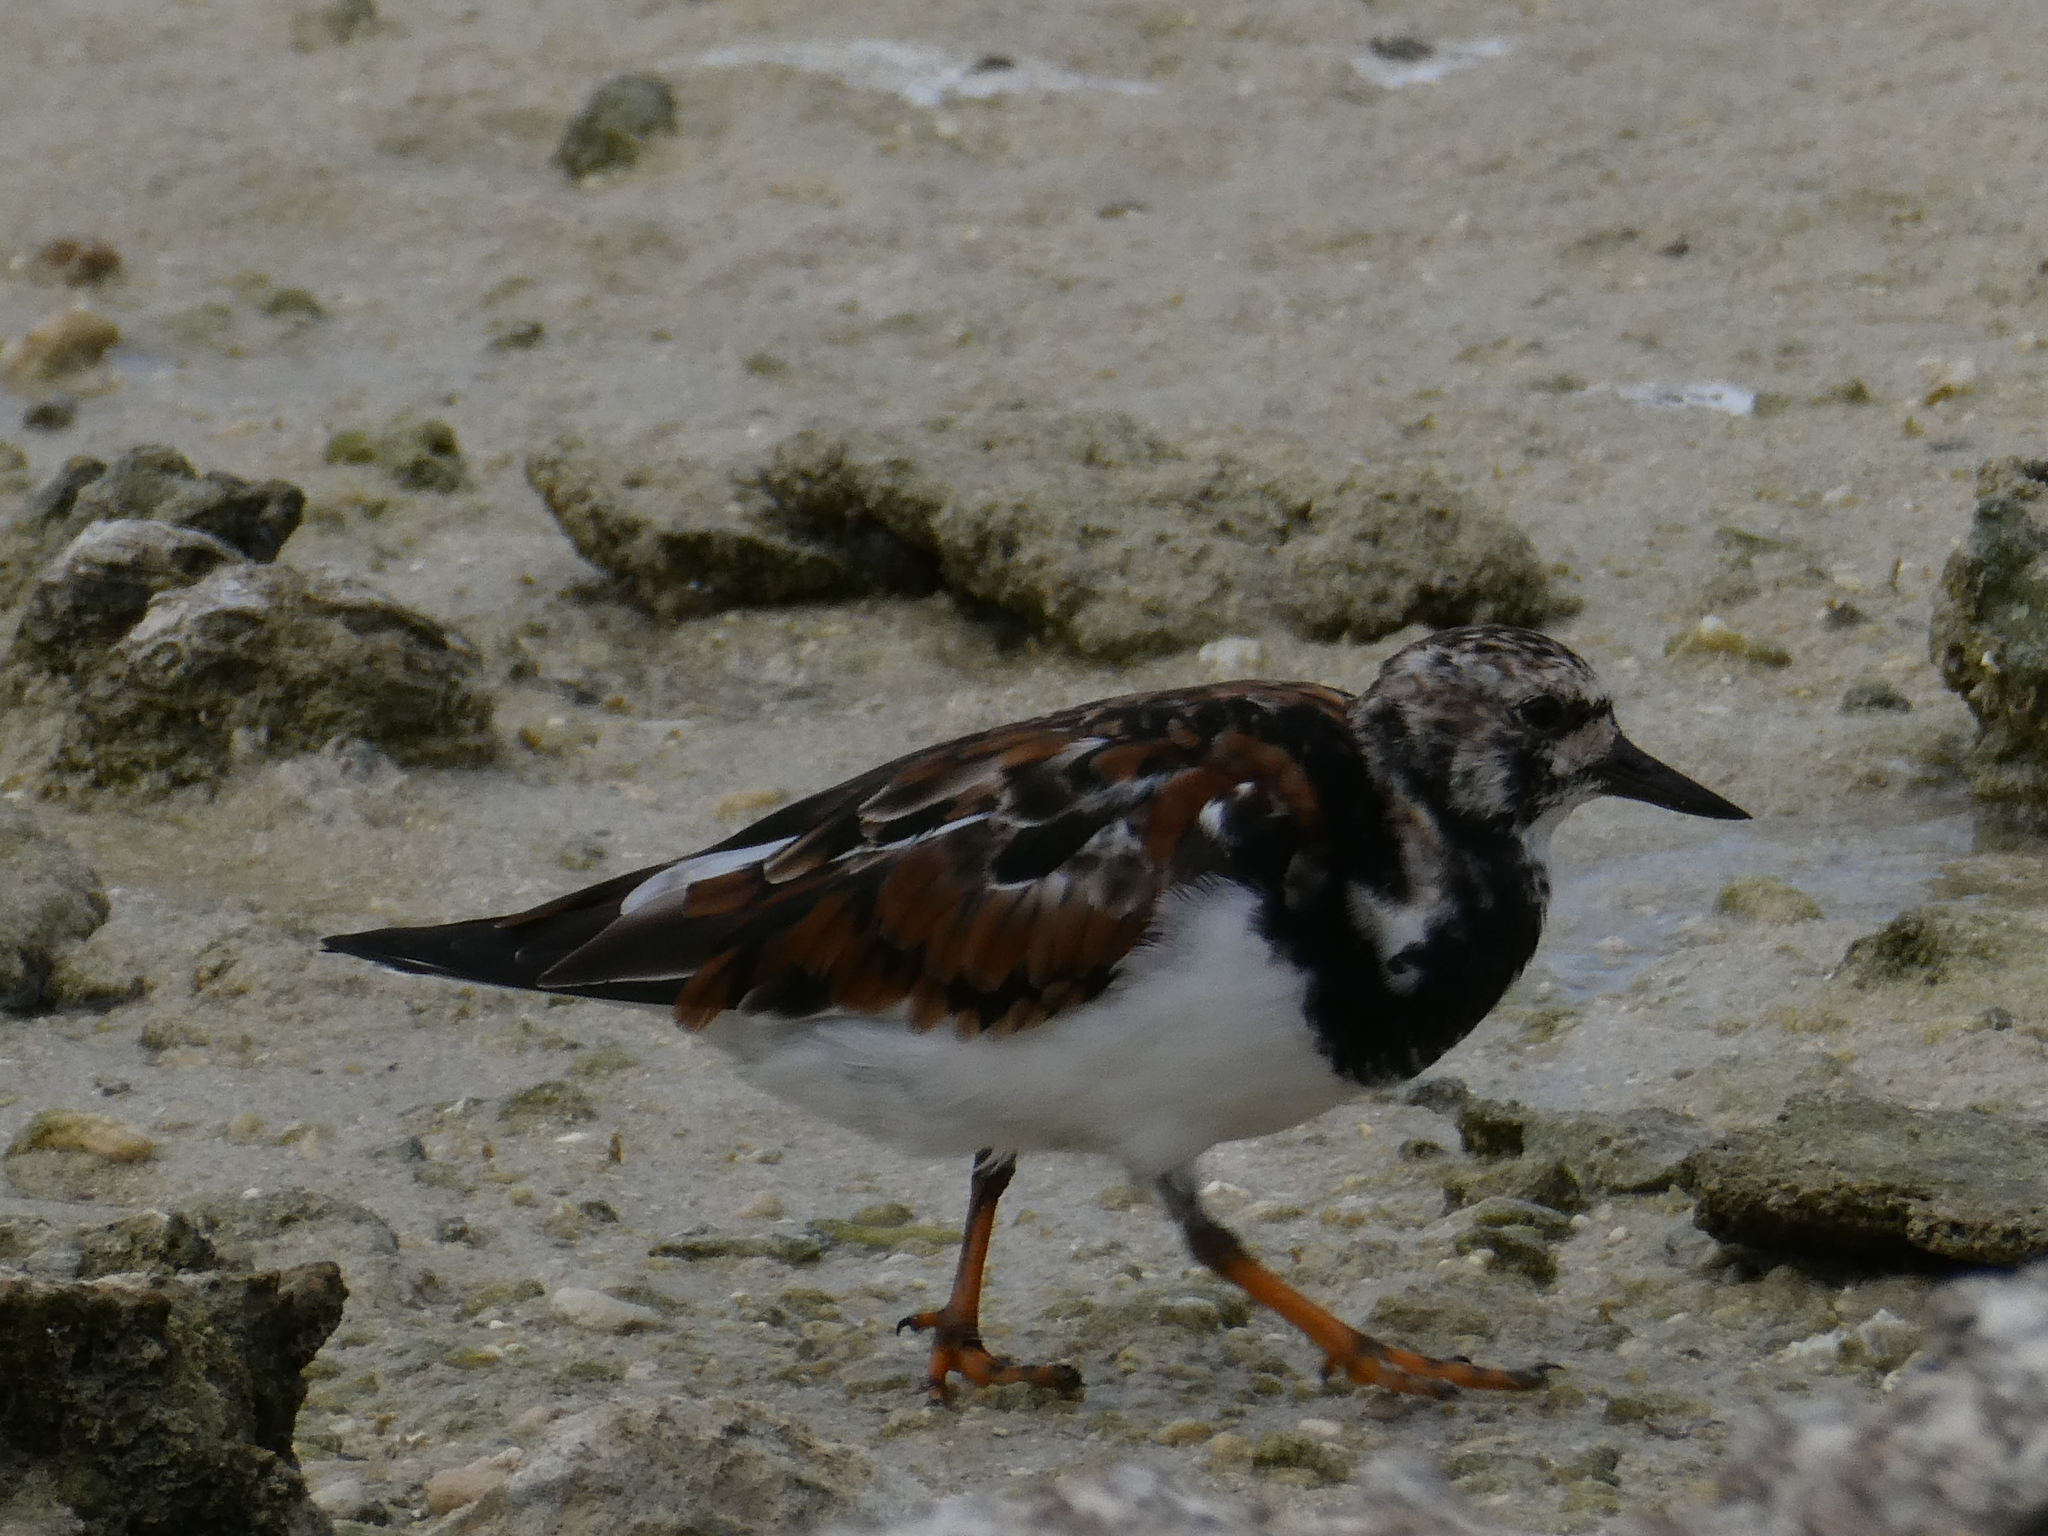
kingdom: Animalia
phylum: Chordata
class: Aves
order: Charadriiformes
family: Scolopacidae
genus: Arenaria
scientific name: Arenaria interpres
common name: Ruddy turnstone
